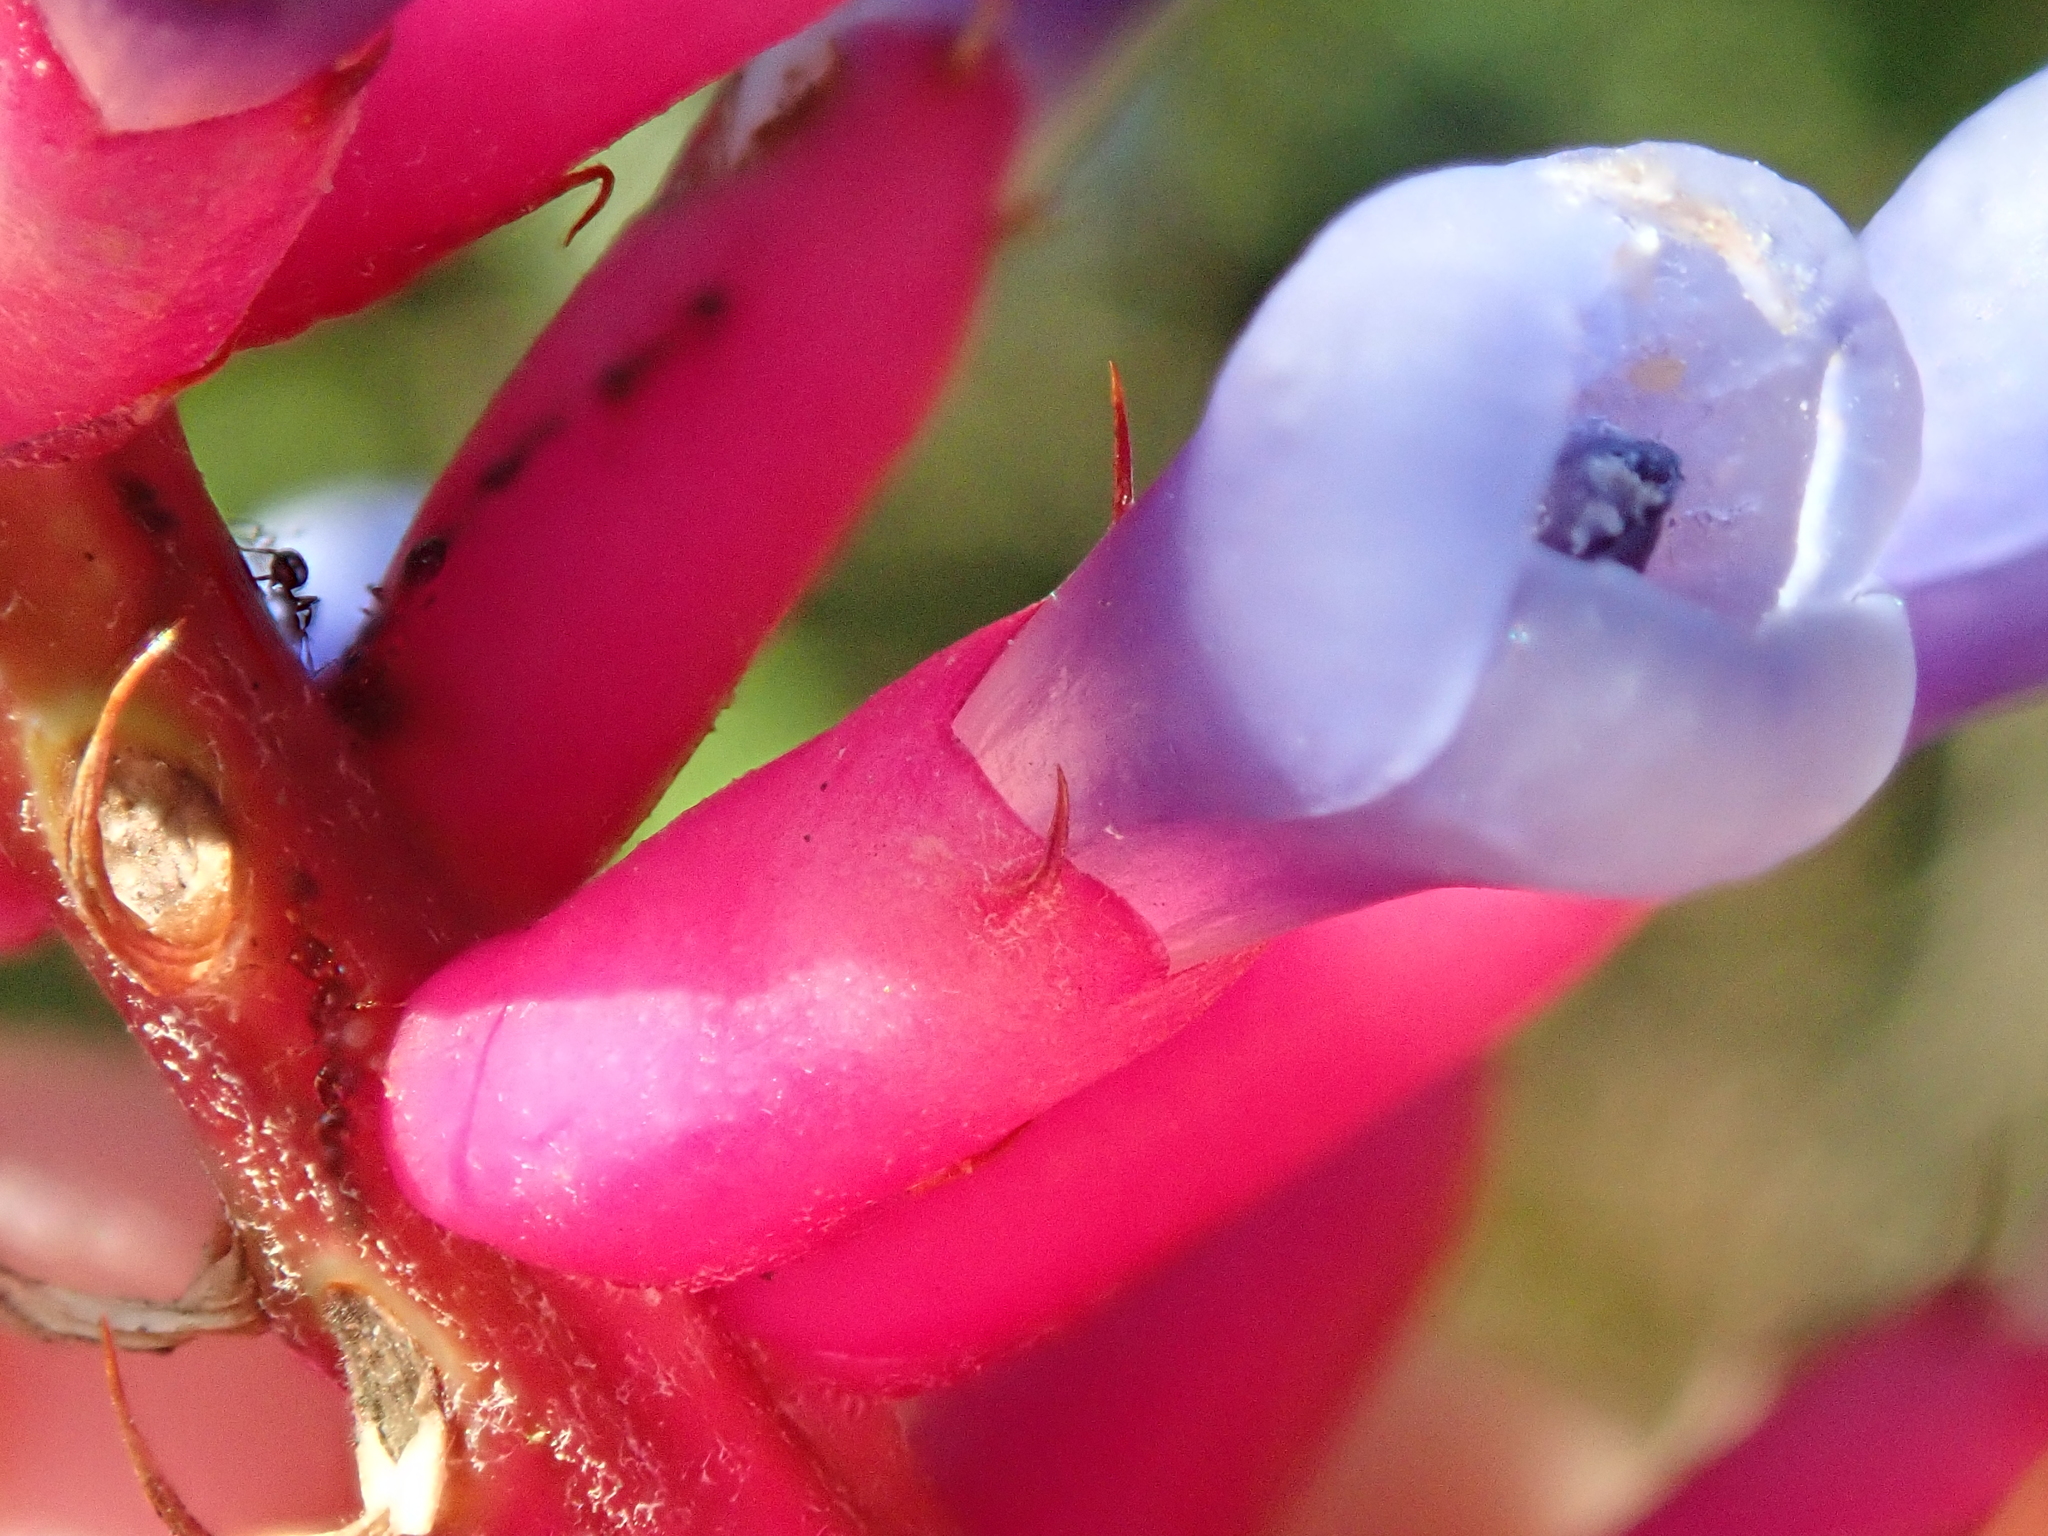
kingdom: Plantae
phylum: Tracheophyta
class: Liliopsida
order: Poales
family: Bromeliaceae
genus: Aechmea
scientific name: Aechmea gamosepala
